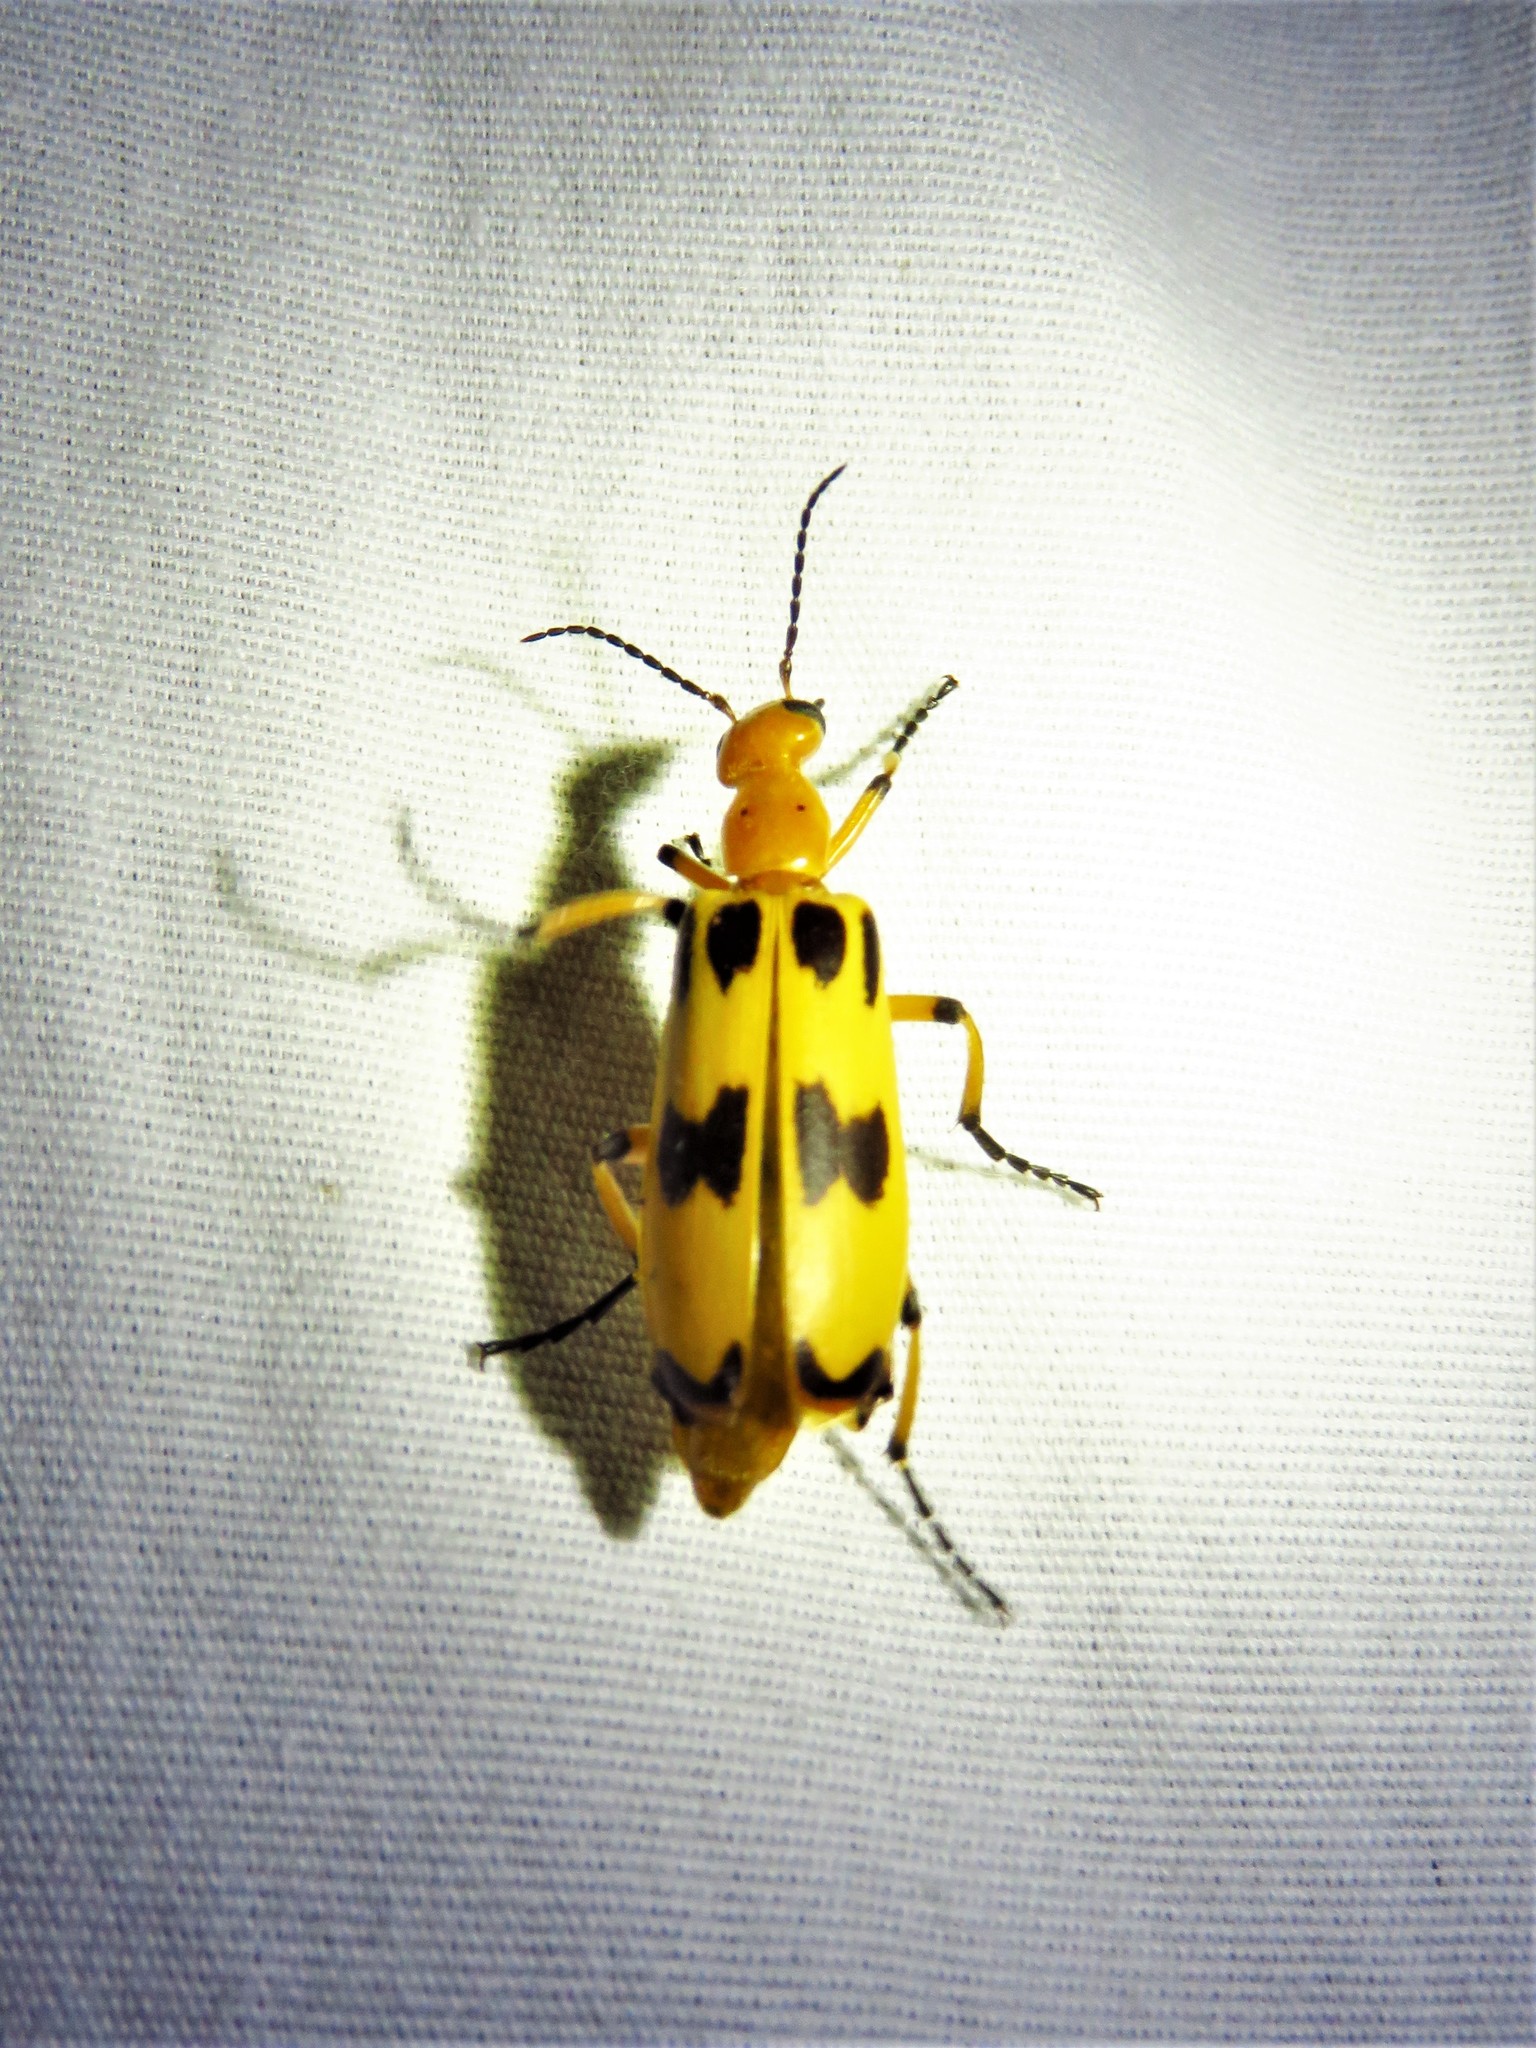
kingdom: Animalia
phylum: Arthropoda
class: Insecta
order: Coleoptera
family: Meloidae
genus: Pyrota
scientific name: Pyrota punctata
